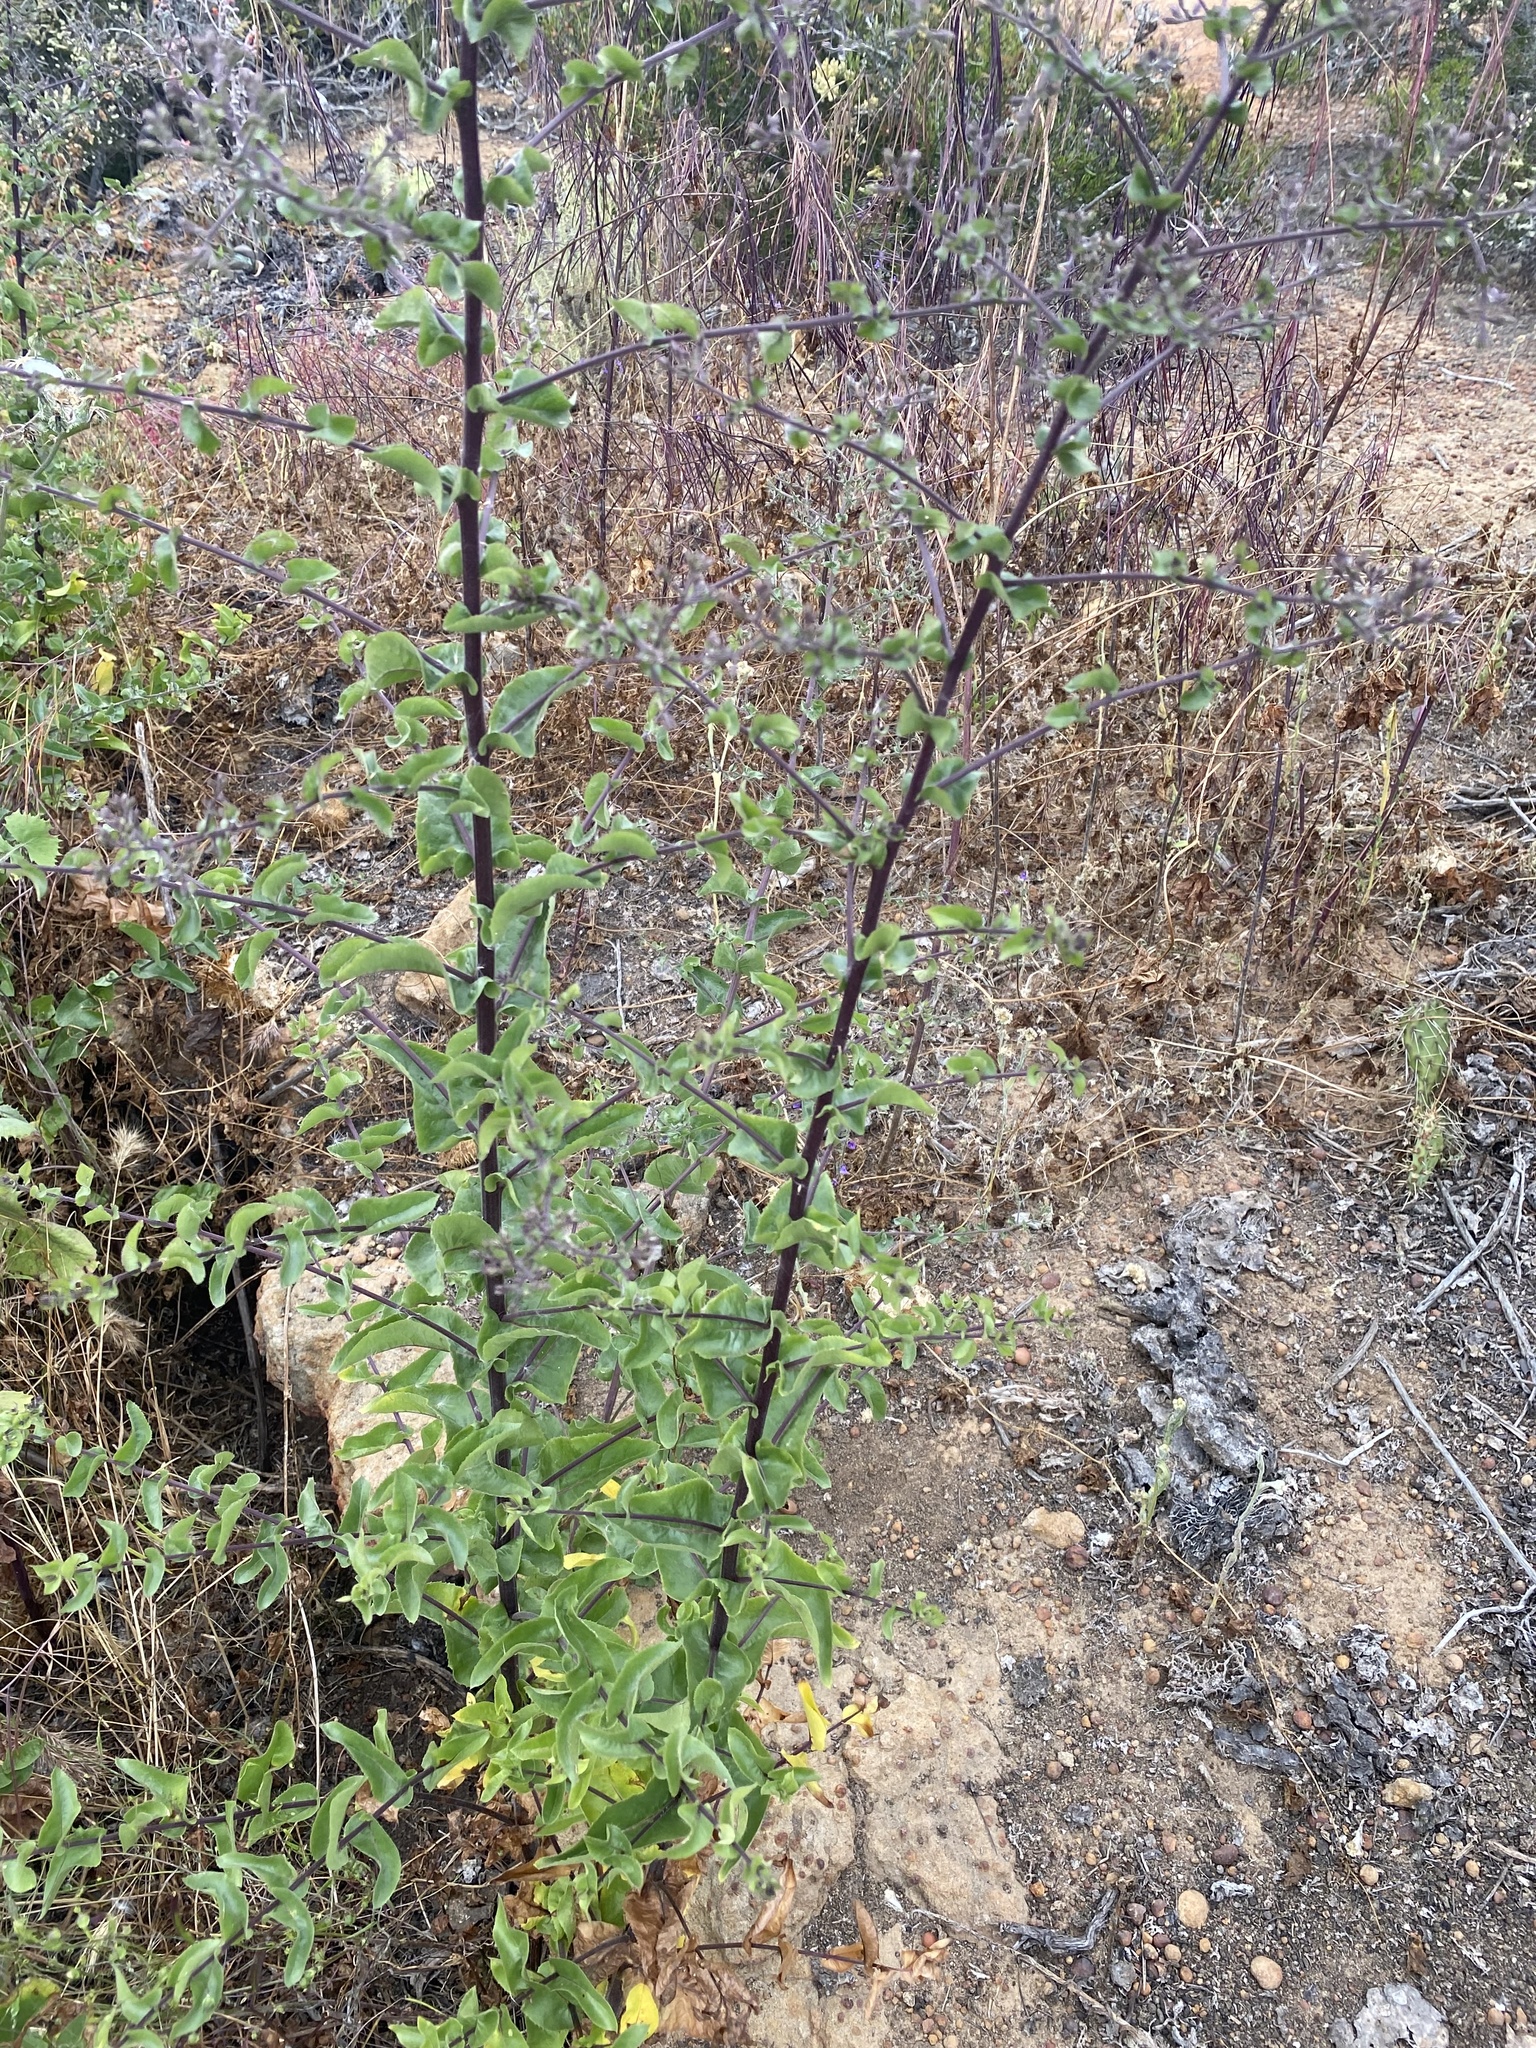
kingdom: Plantae
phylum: Tracheophyta
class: Magnoliopsida
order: Asterales
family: Asteraceae
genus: Acourtia
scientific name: Acourtia microcephala
